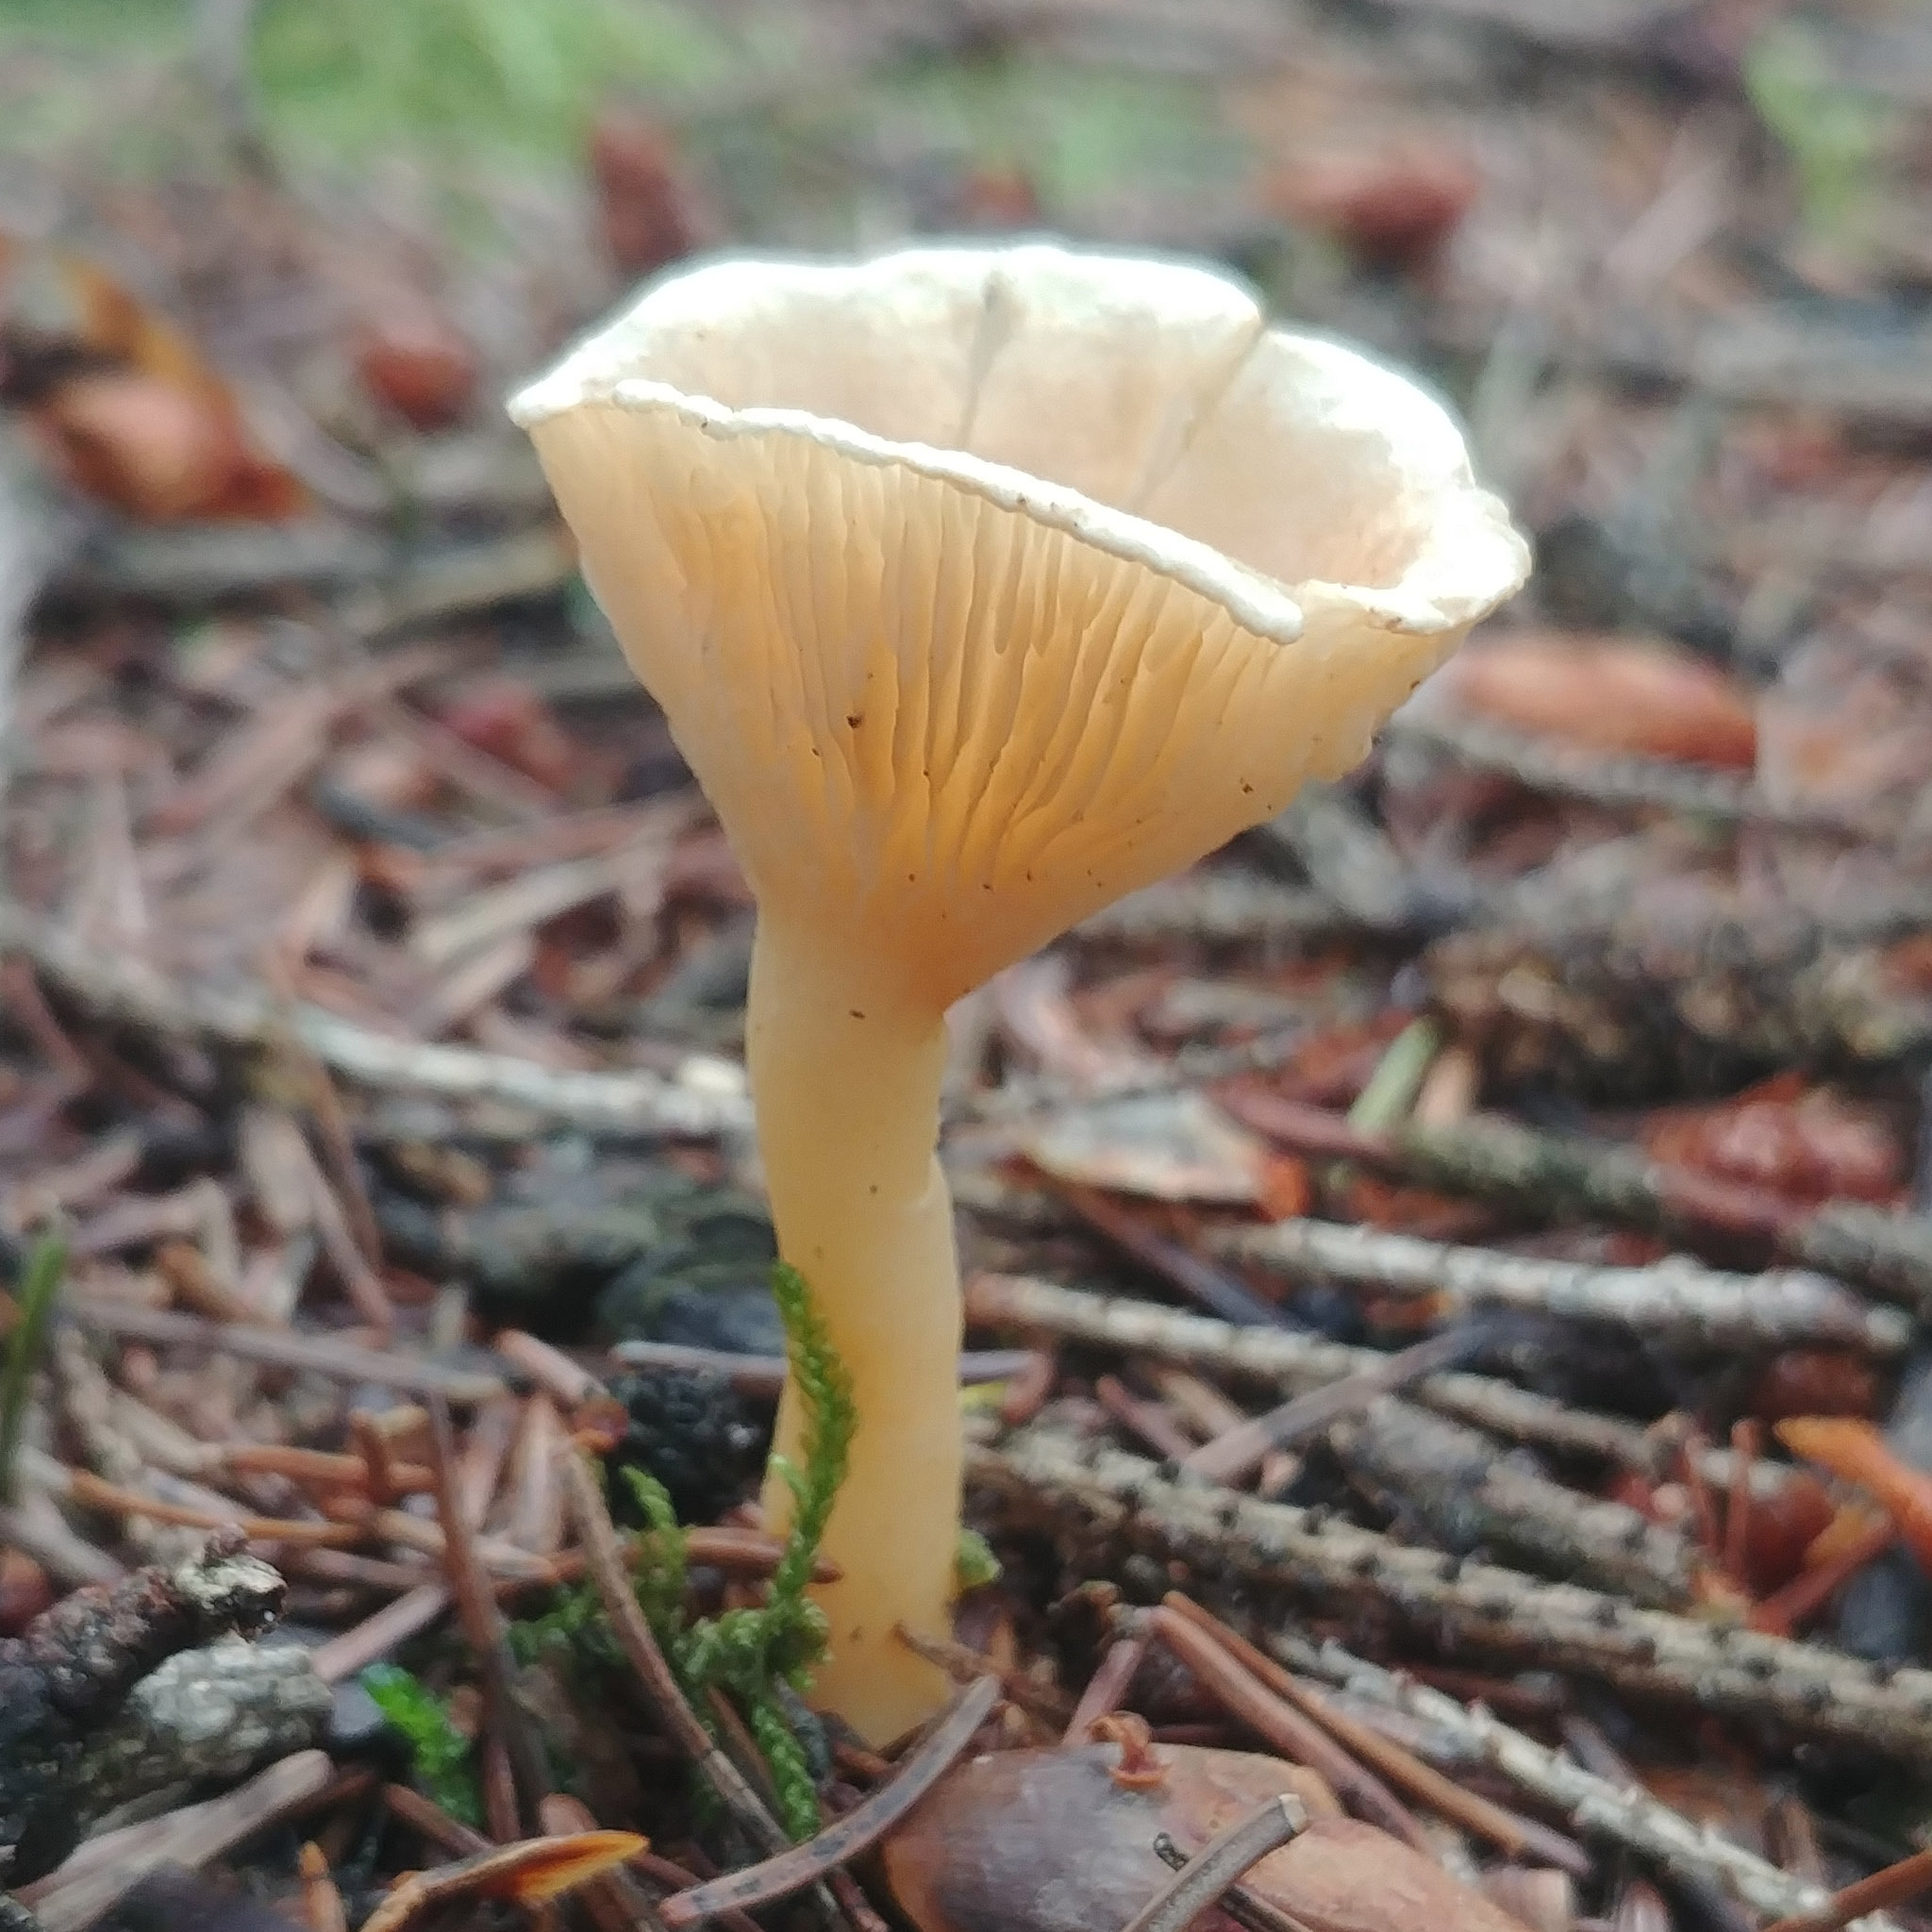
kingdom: Fungi
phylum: Basidiomycota
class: Agaricomycetes
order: Agaricales
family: Tricholomataceae
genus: Infundibulicybe
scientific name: Infundibulicybe gibba
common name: Common funnel
